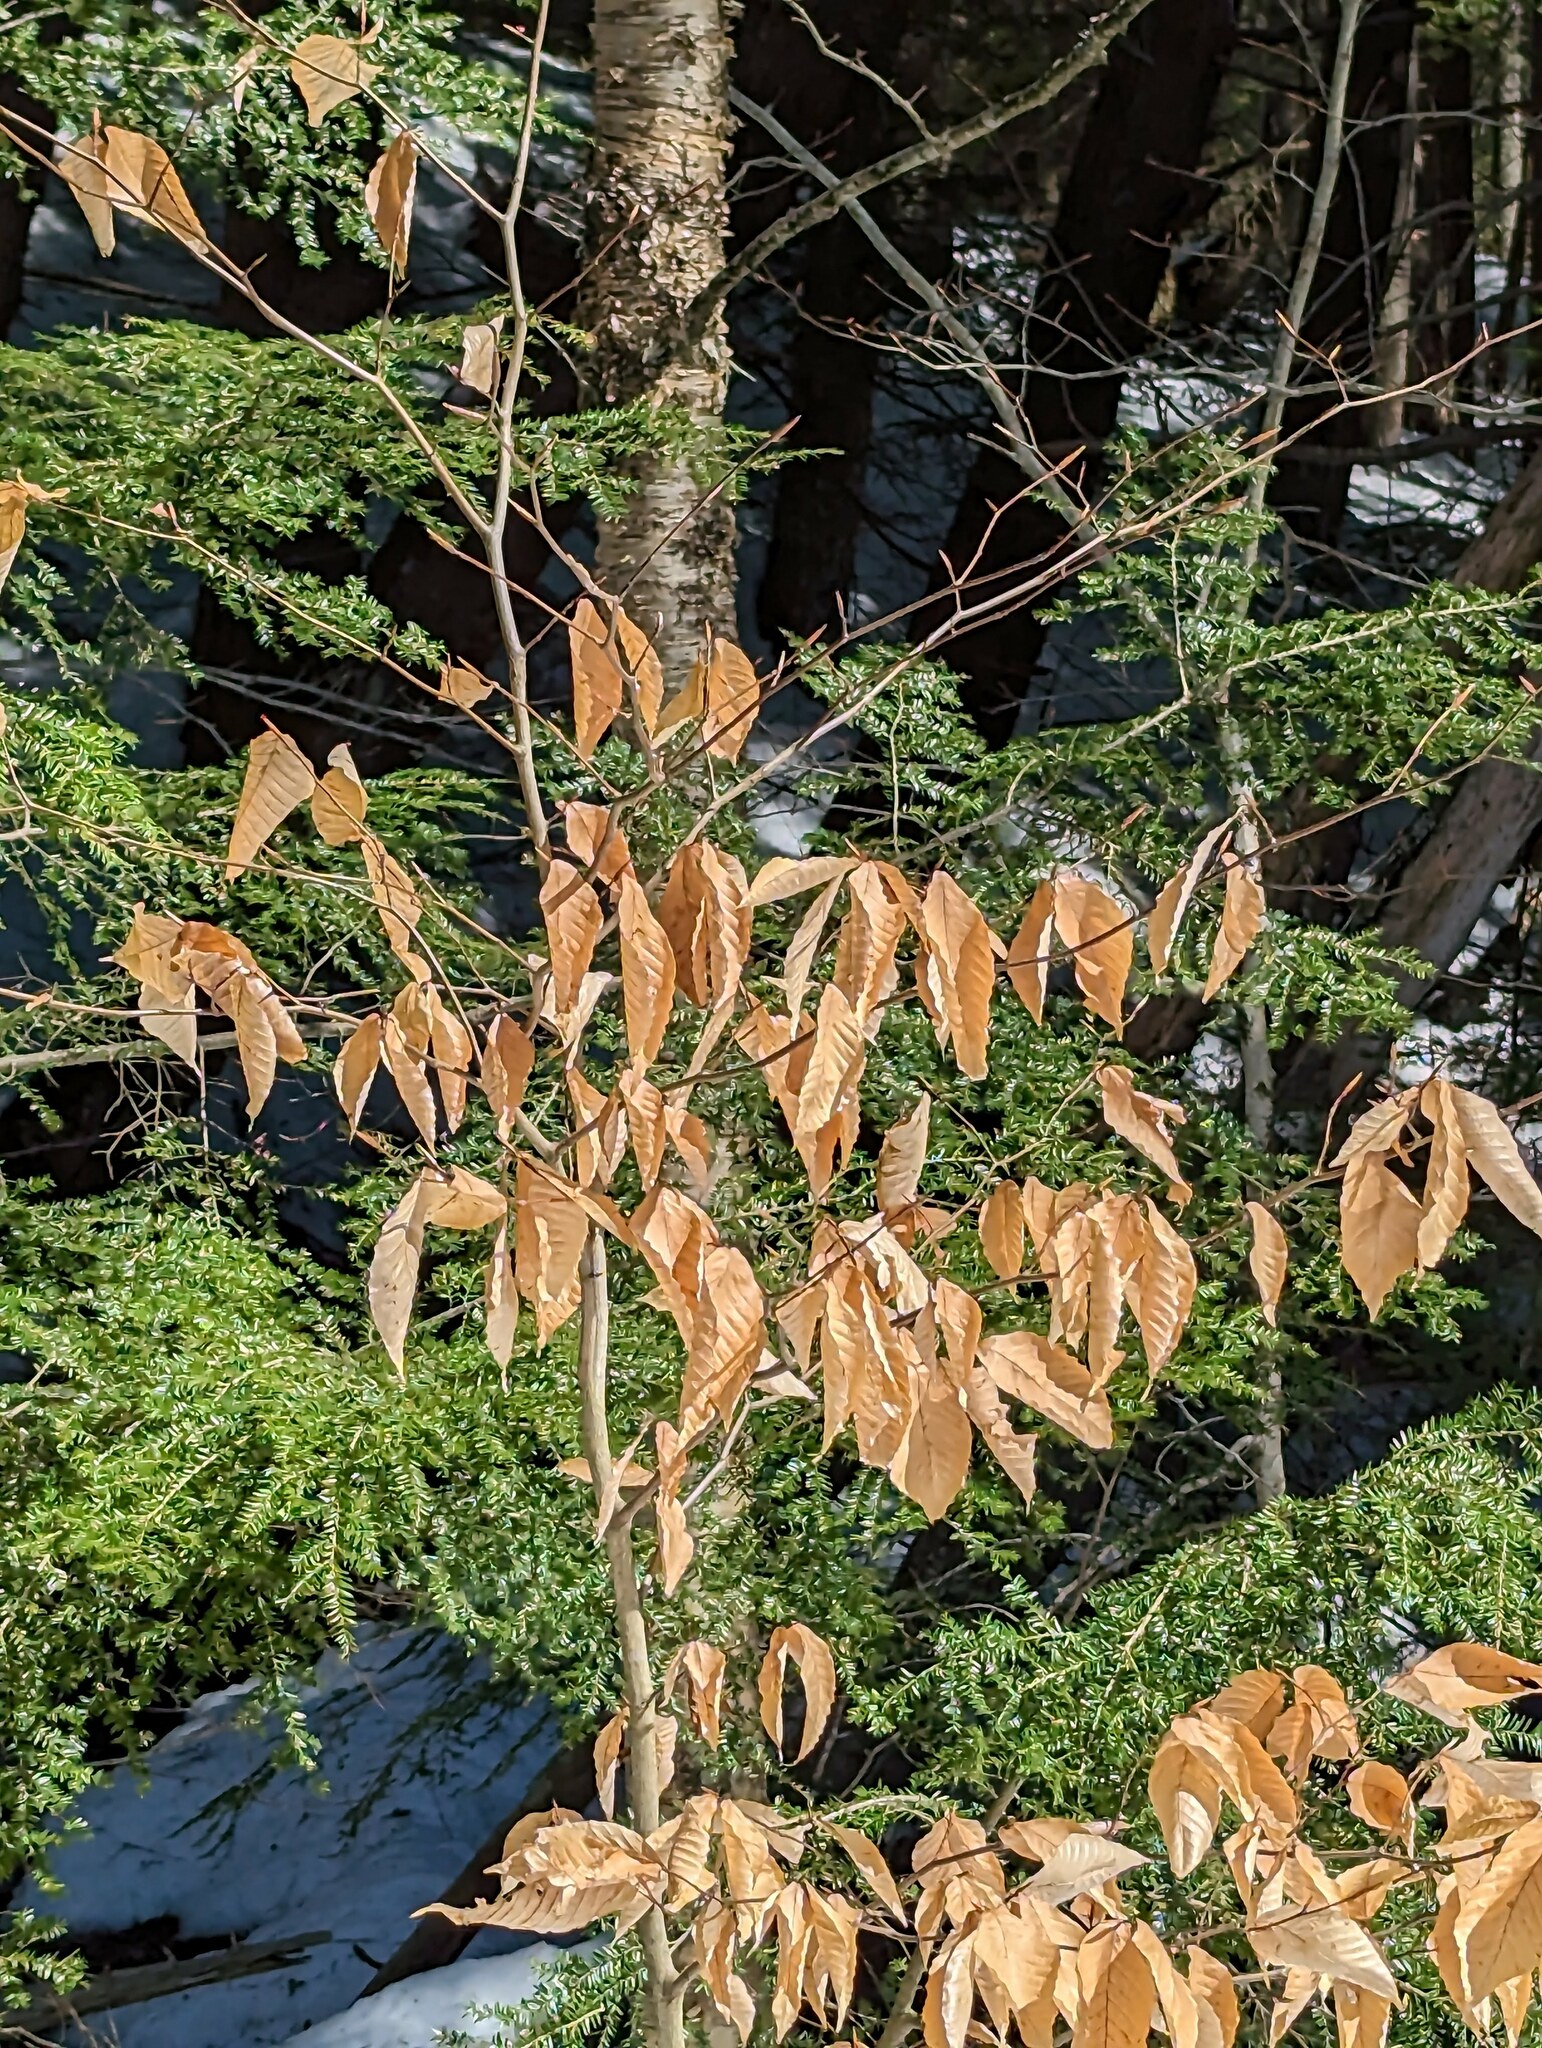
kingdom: Plantae
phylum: Tracheophyta
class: Magnoliopsida
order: Fagales
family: Fagaceae
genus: Fagus
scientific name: Fagus grandifolia
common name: American beech
